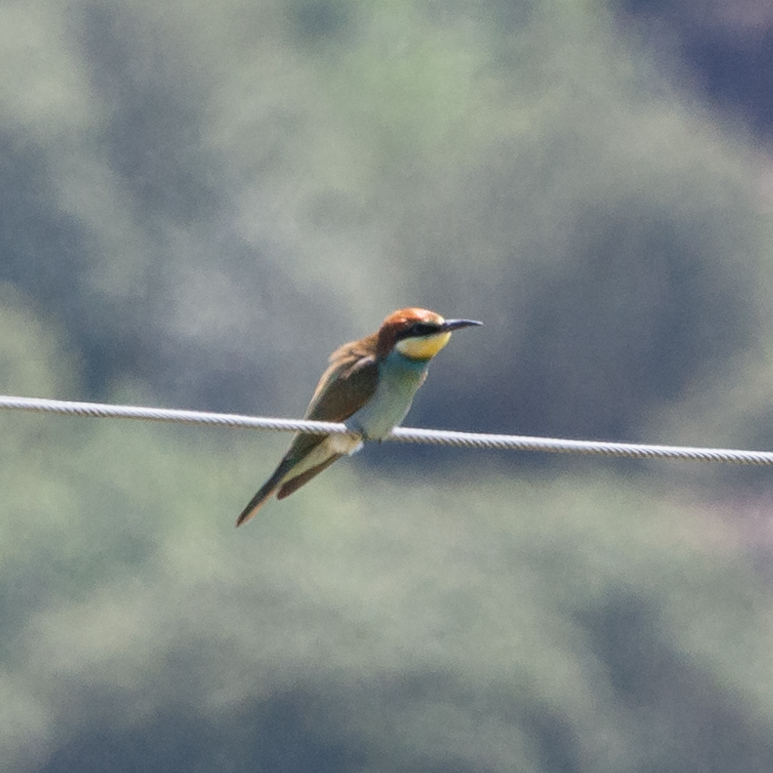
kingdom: Animalia
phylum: Chordata
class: Aves
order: Coraciiformes
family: Meropidae
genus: Merops
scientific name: Merops apiaster
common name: European bee-eater
